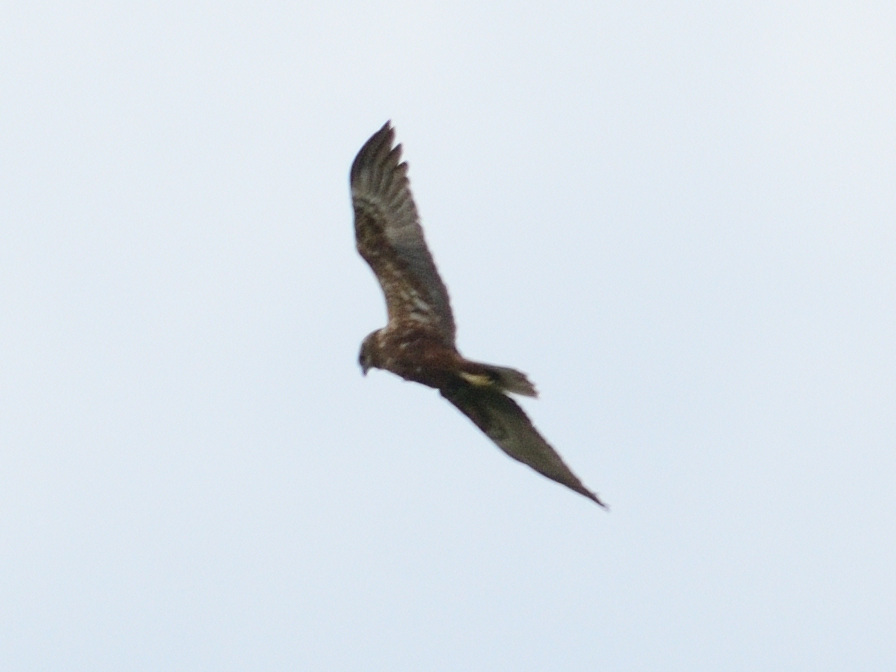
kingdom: Animalia
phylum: Chordata
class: Aves
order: Accipitriformes
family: Accipitridae
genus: Circus
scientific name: Circus aeruginosus
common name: Western marsh harrier
